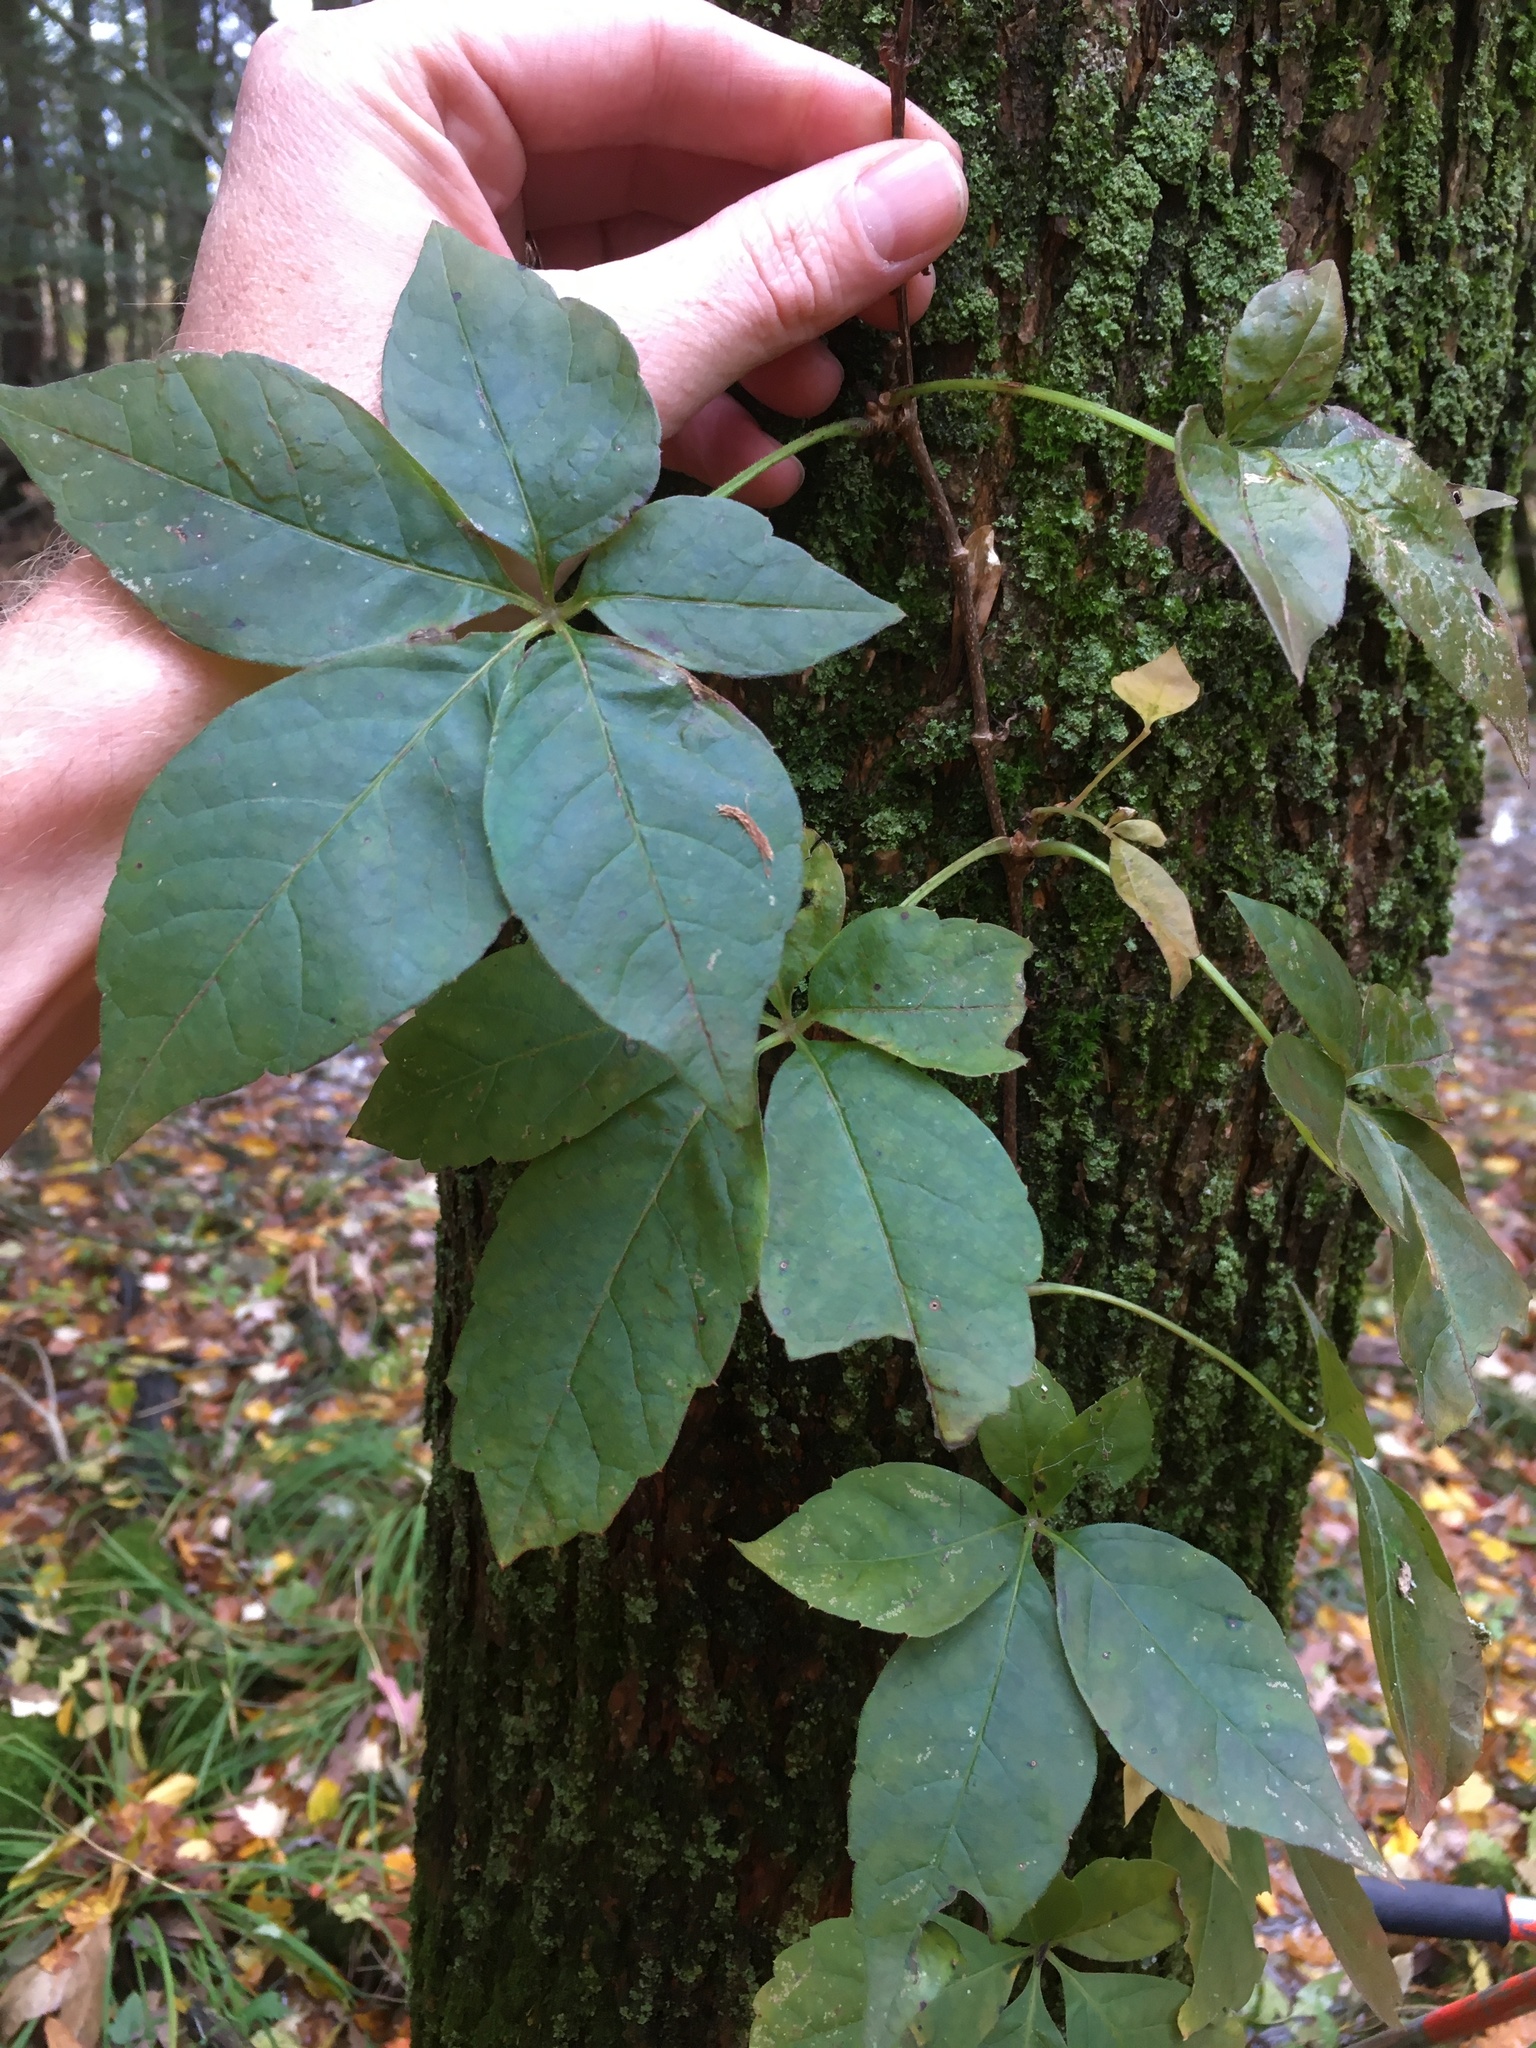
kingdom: Plantae
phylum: Tracheophyta
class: Magnoliopsida
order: Vitales
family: Vitaceae
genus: Parthenocissus
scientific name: Parthenocissus quinquefolia
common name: Virginia-creeper
